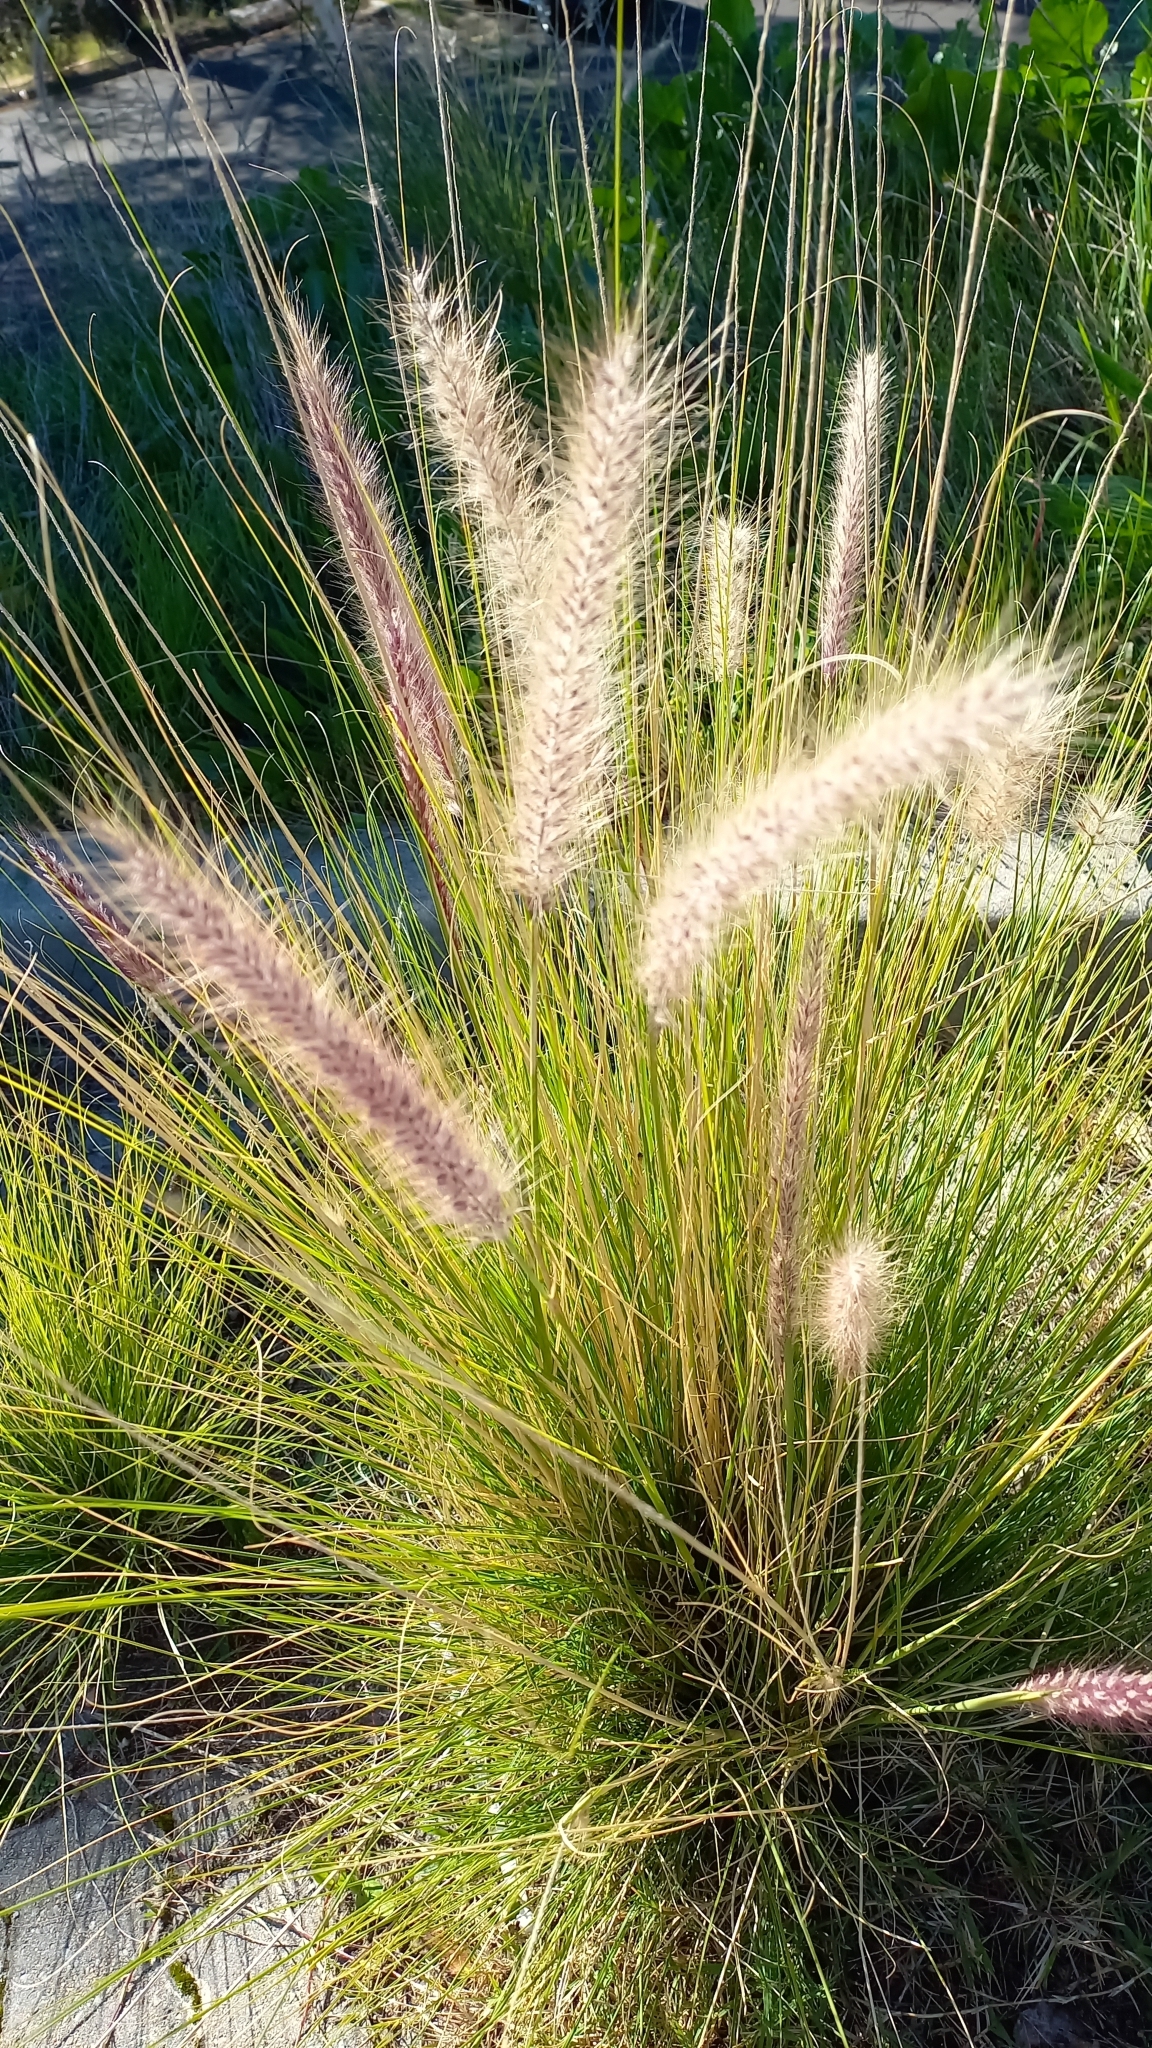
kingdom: Plantae
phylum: Tracheophyta
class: Liliopsida
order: Poales
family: Poaceae
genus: Cenchrus
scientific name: Cenchrus setaceus
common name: Crimson fountaingrass
